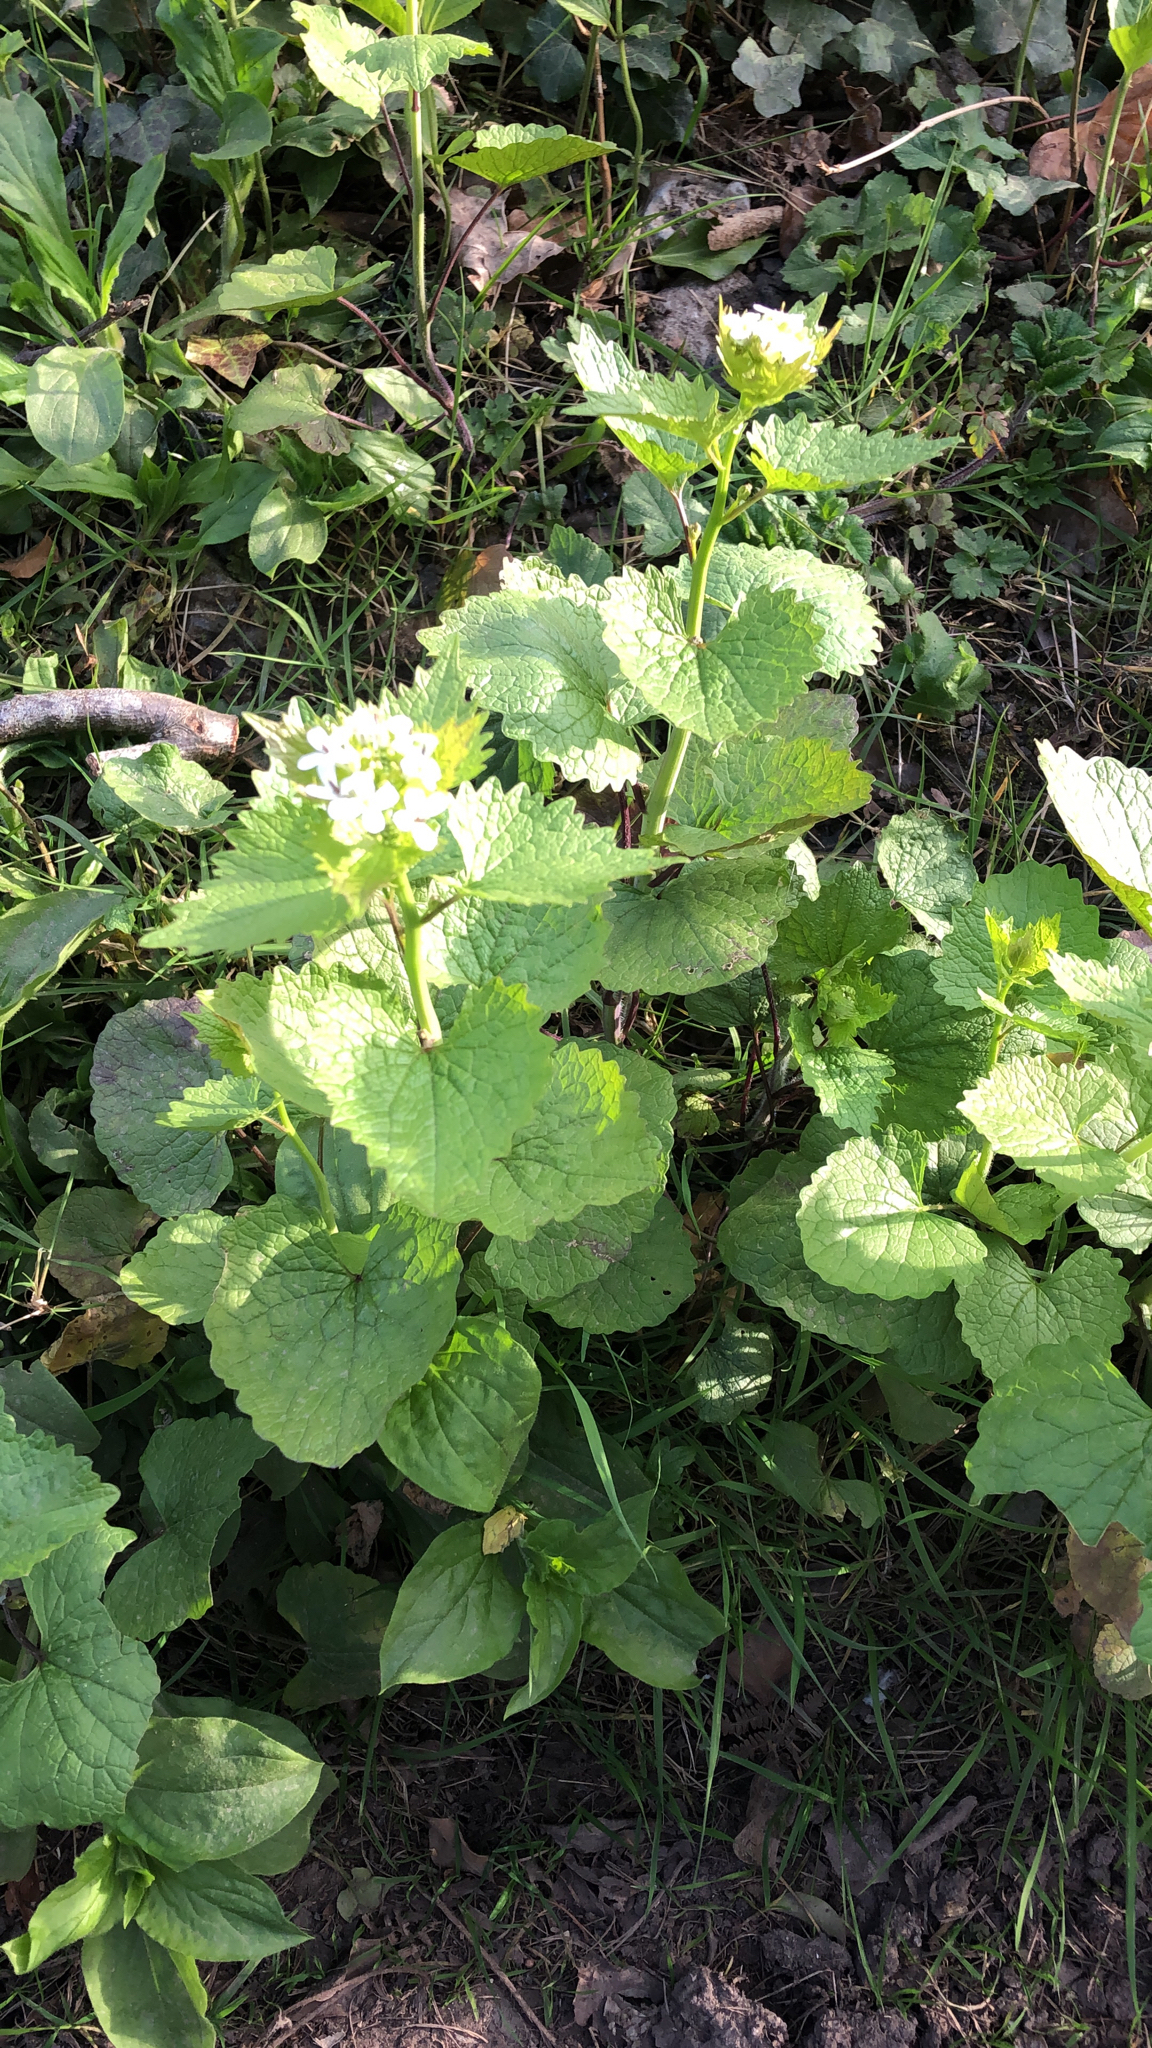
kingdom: Plantae
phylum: Tracheophyta
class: Magnoliopsida
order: Brassicales
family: Brassicaceae
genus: Alliaria
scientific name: Alliaria petiolata
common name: Garlic mustard
